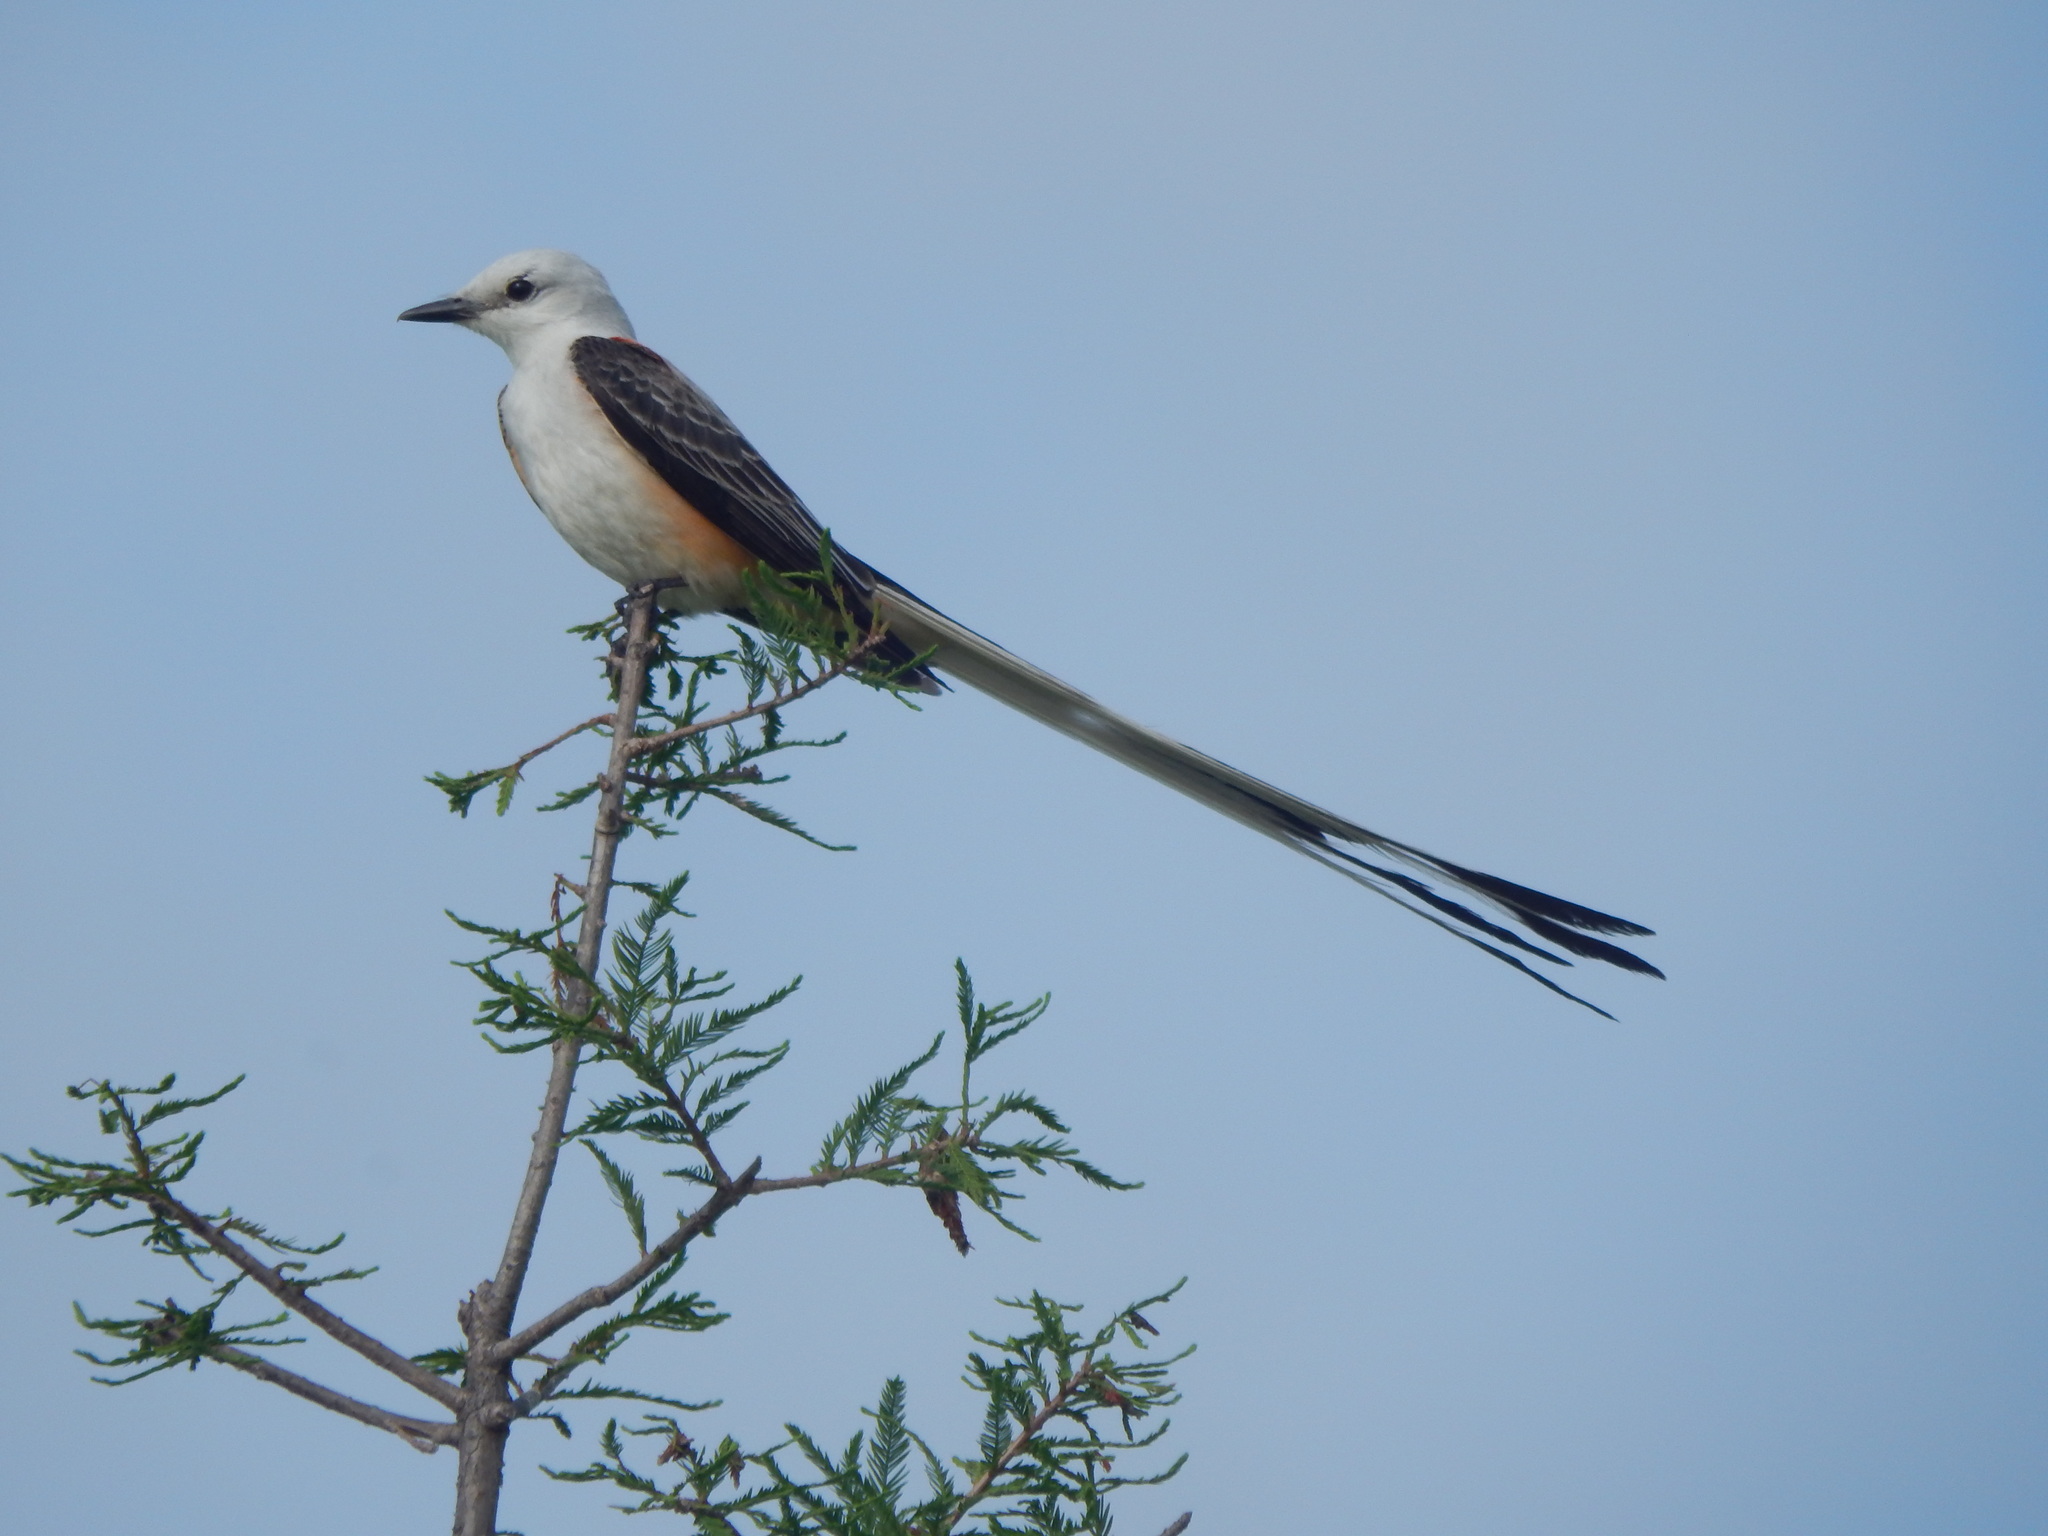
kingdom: Animalia
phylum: Chordata
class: Aves
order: Passeriformes
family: Tyrannidae
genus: Tyrannus
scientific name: Tyrannus forficatus
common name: Scissor-tailed flycatcher
